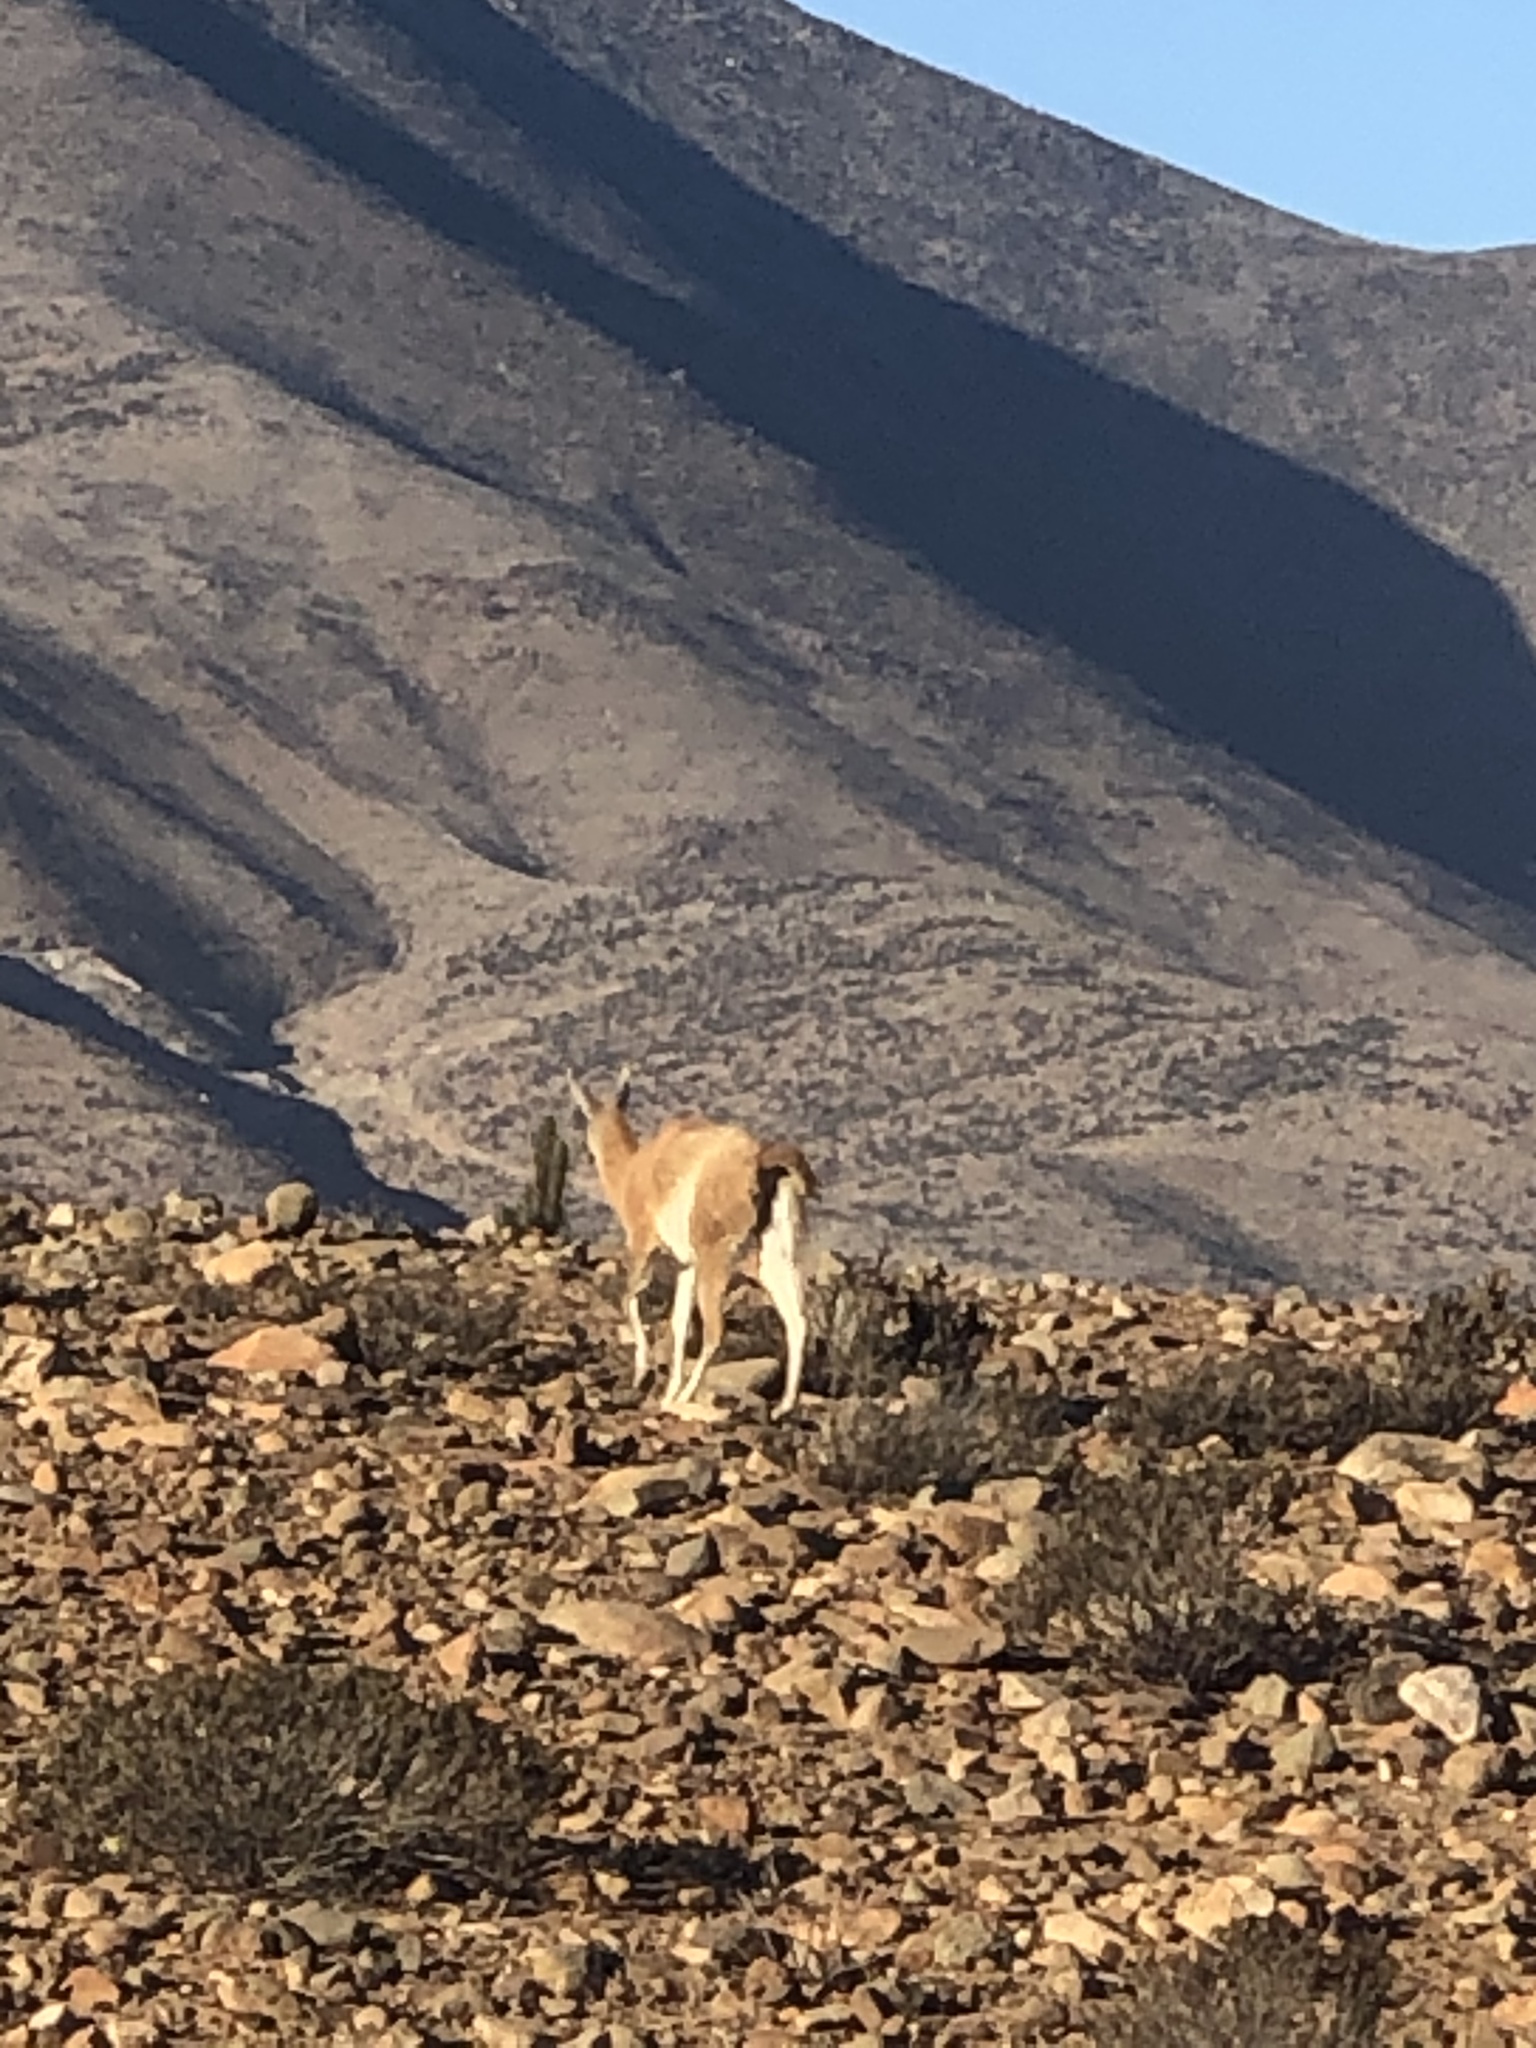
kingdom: Animalia
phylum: Chordata
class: Mammalia
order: Artiodactyla
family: Camelidae
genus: Lama
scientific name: Lama glama
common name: Llama
